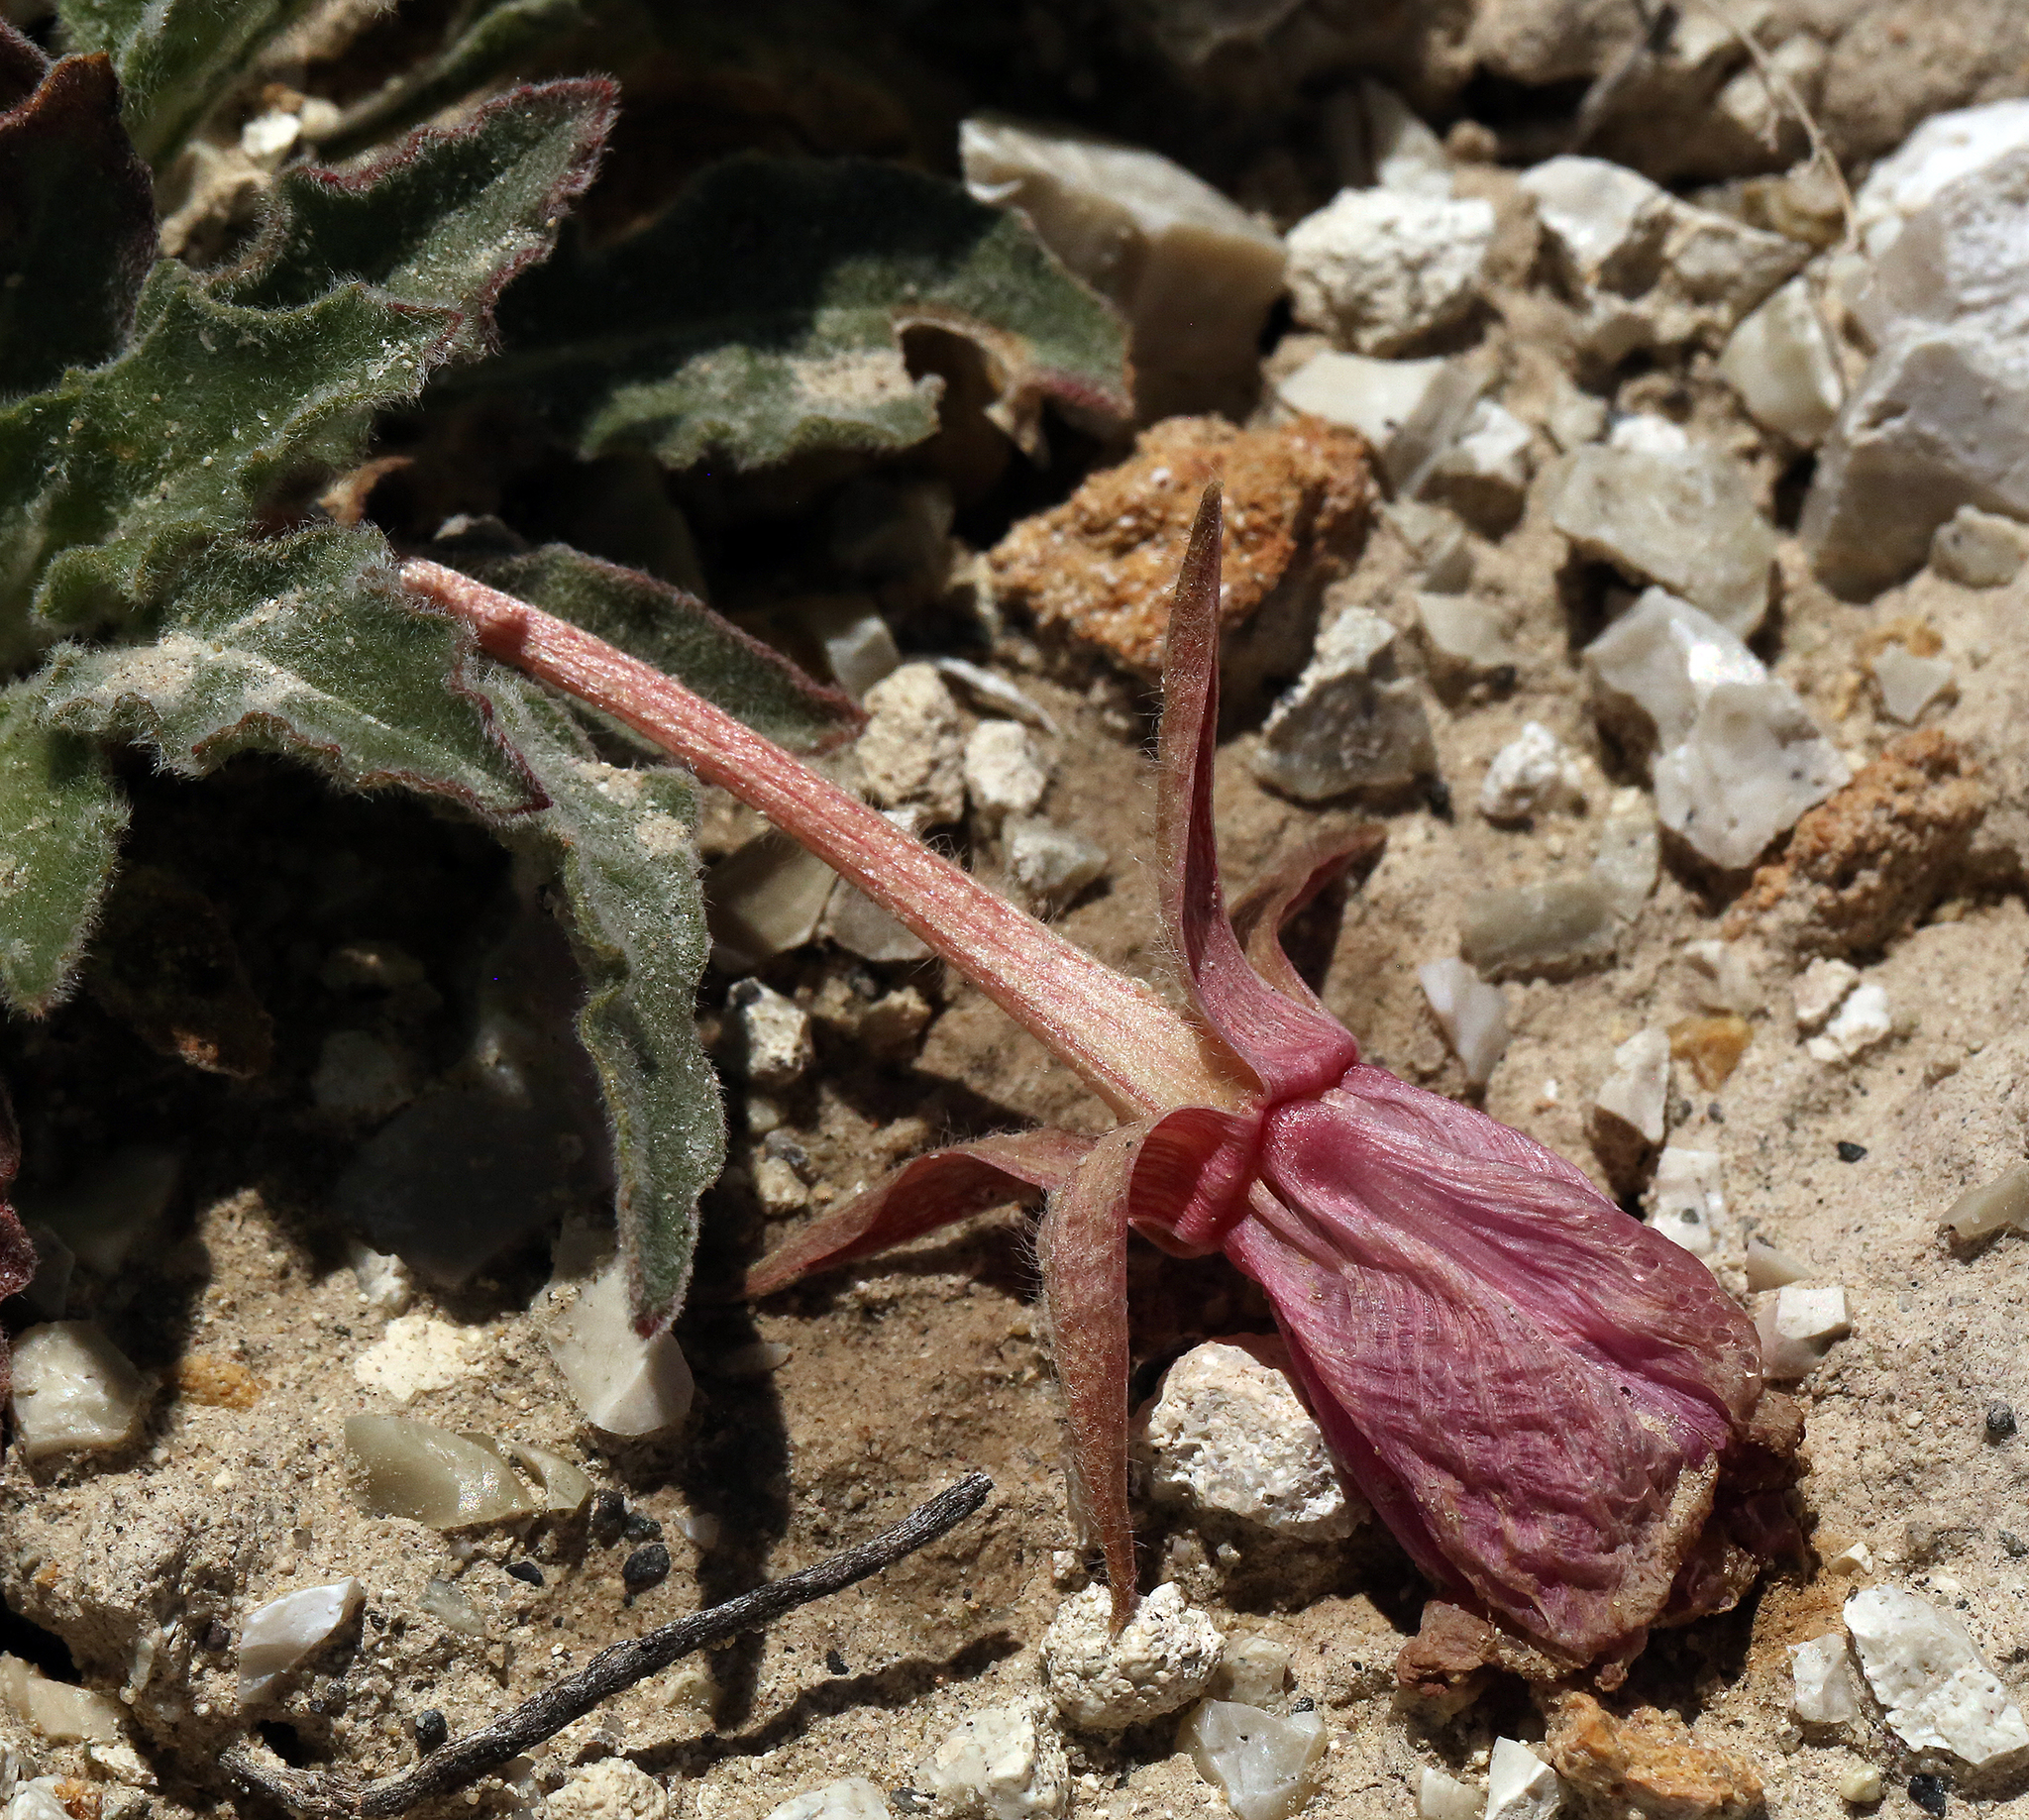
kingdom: Plantae
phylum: Tracheophyta
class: Magnoliopsida
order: Myrtales
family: Onagraceae
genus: Oenothera
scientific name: Oenothera cespitosa
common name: Tufted evening-primrose
